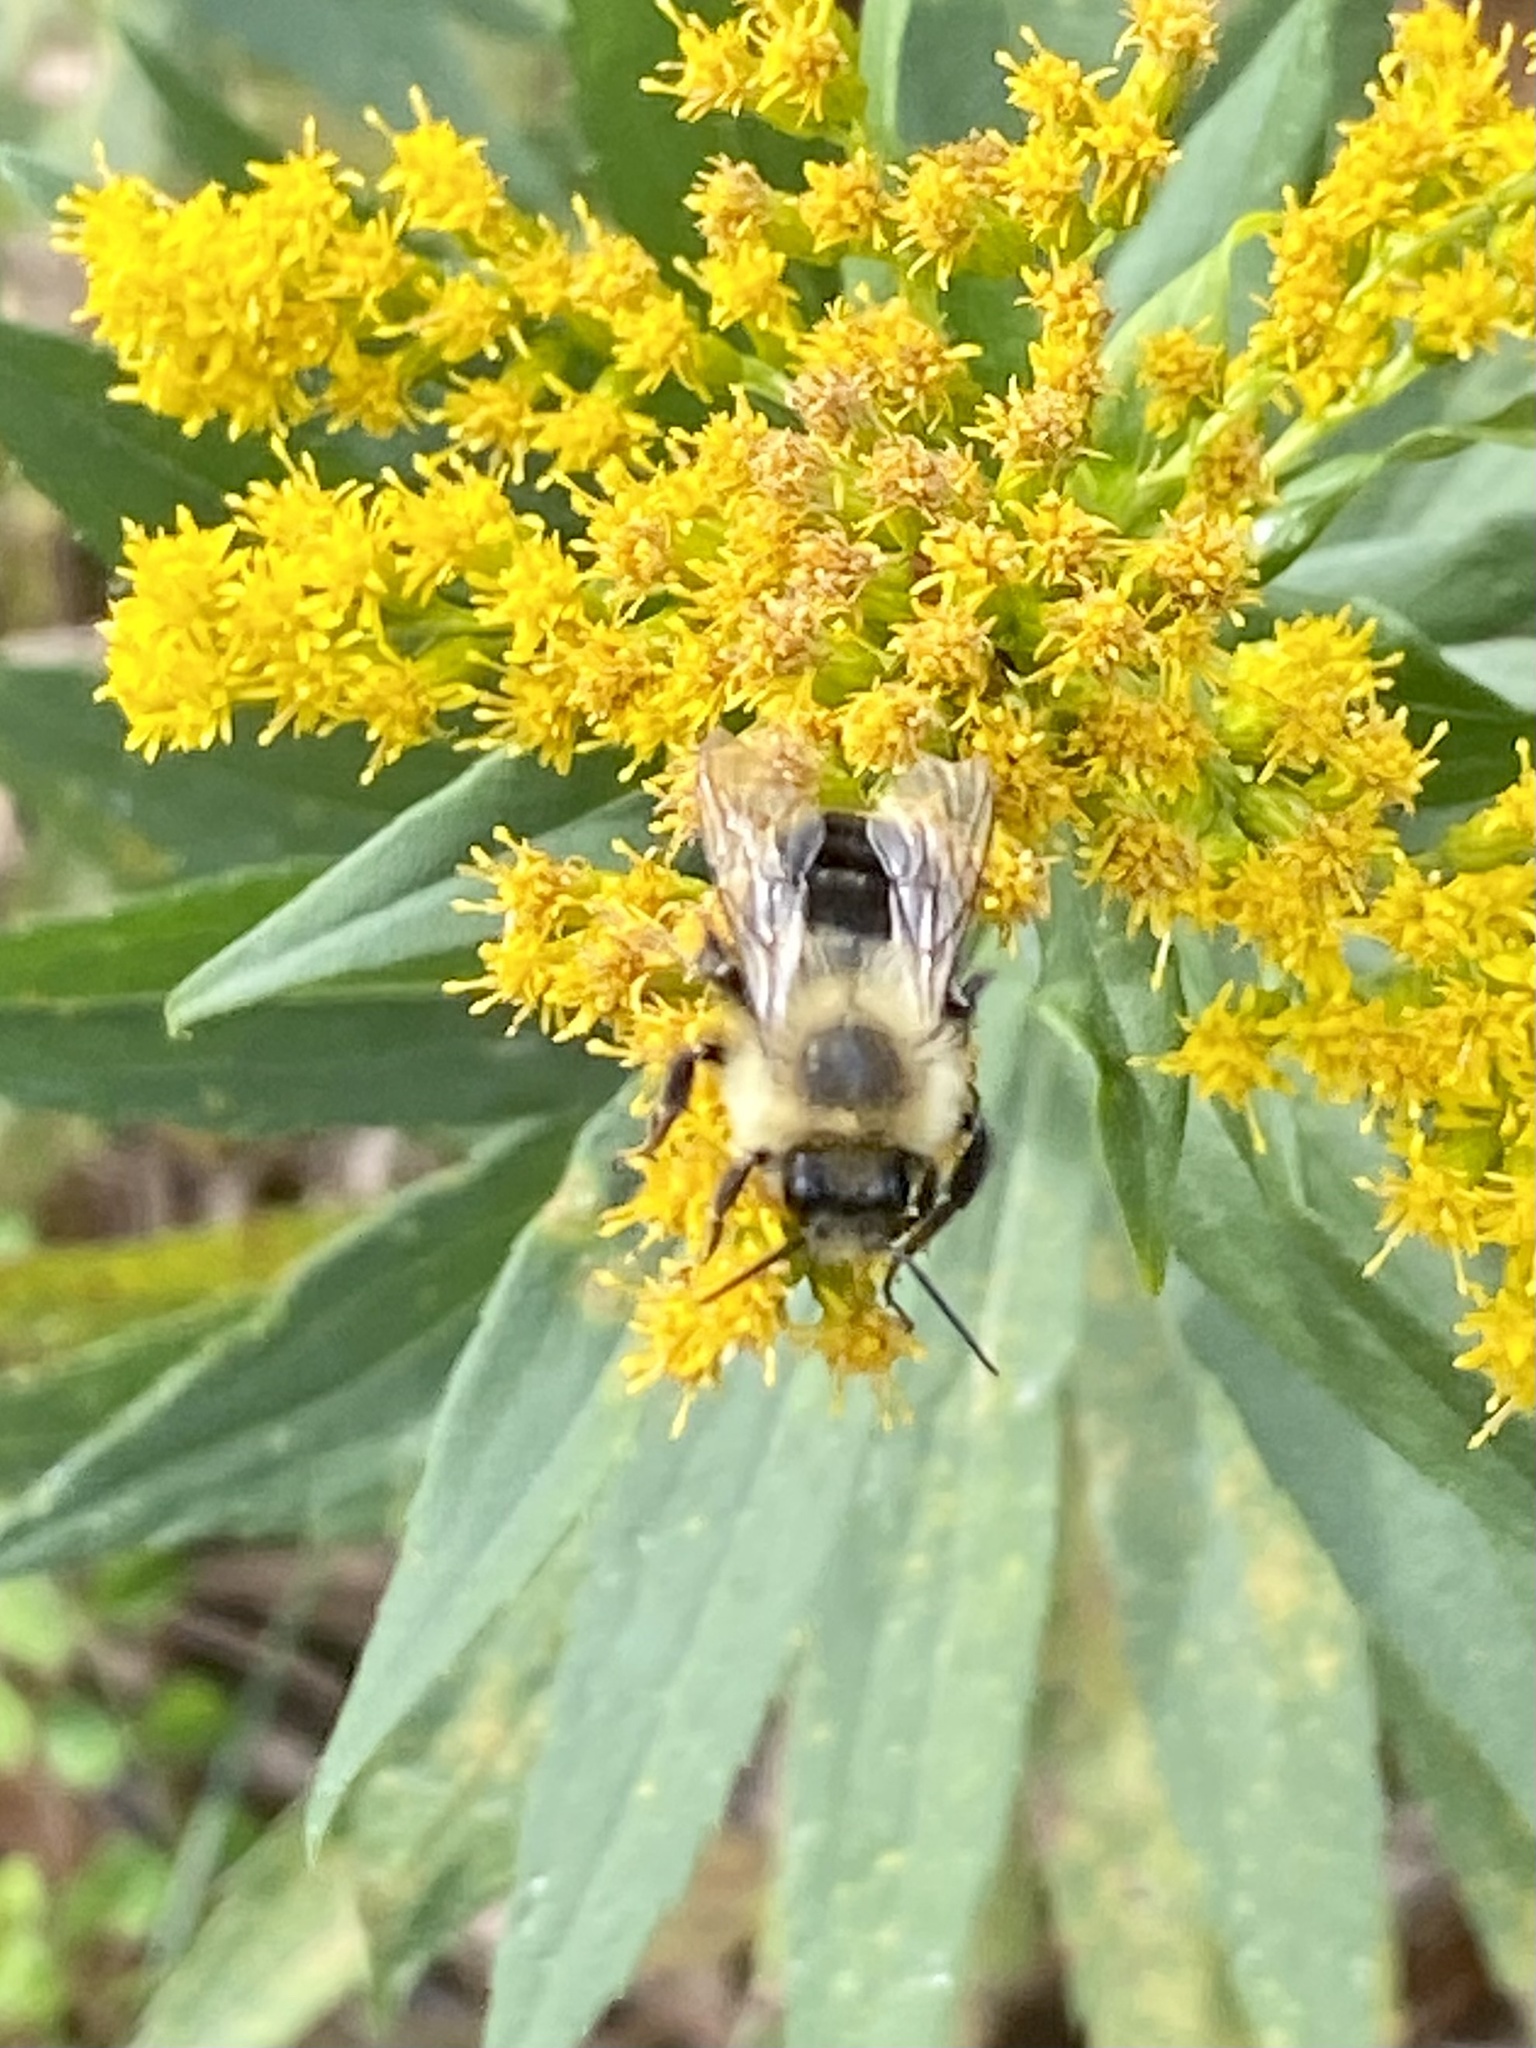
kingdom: Animalia
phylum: Arthropoda
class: Insecta
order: Hymenoptera
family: Apidae
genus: Bombus
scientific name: Bombus impatiens
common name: Common eastern bumble bee
